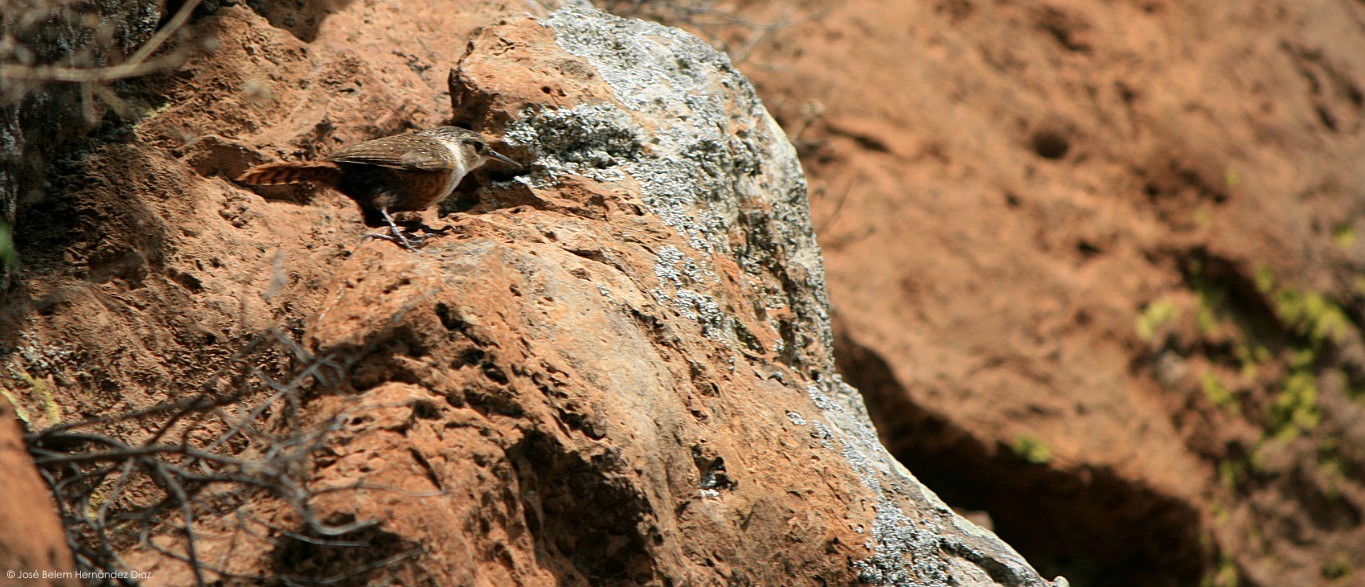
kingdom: Animalia
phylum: Chordata
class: Aves
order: Passeriformes
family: Troglodytidae
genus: Catherpes
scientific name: Catherpes mexicanus
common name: Canyon wren
